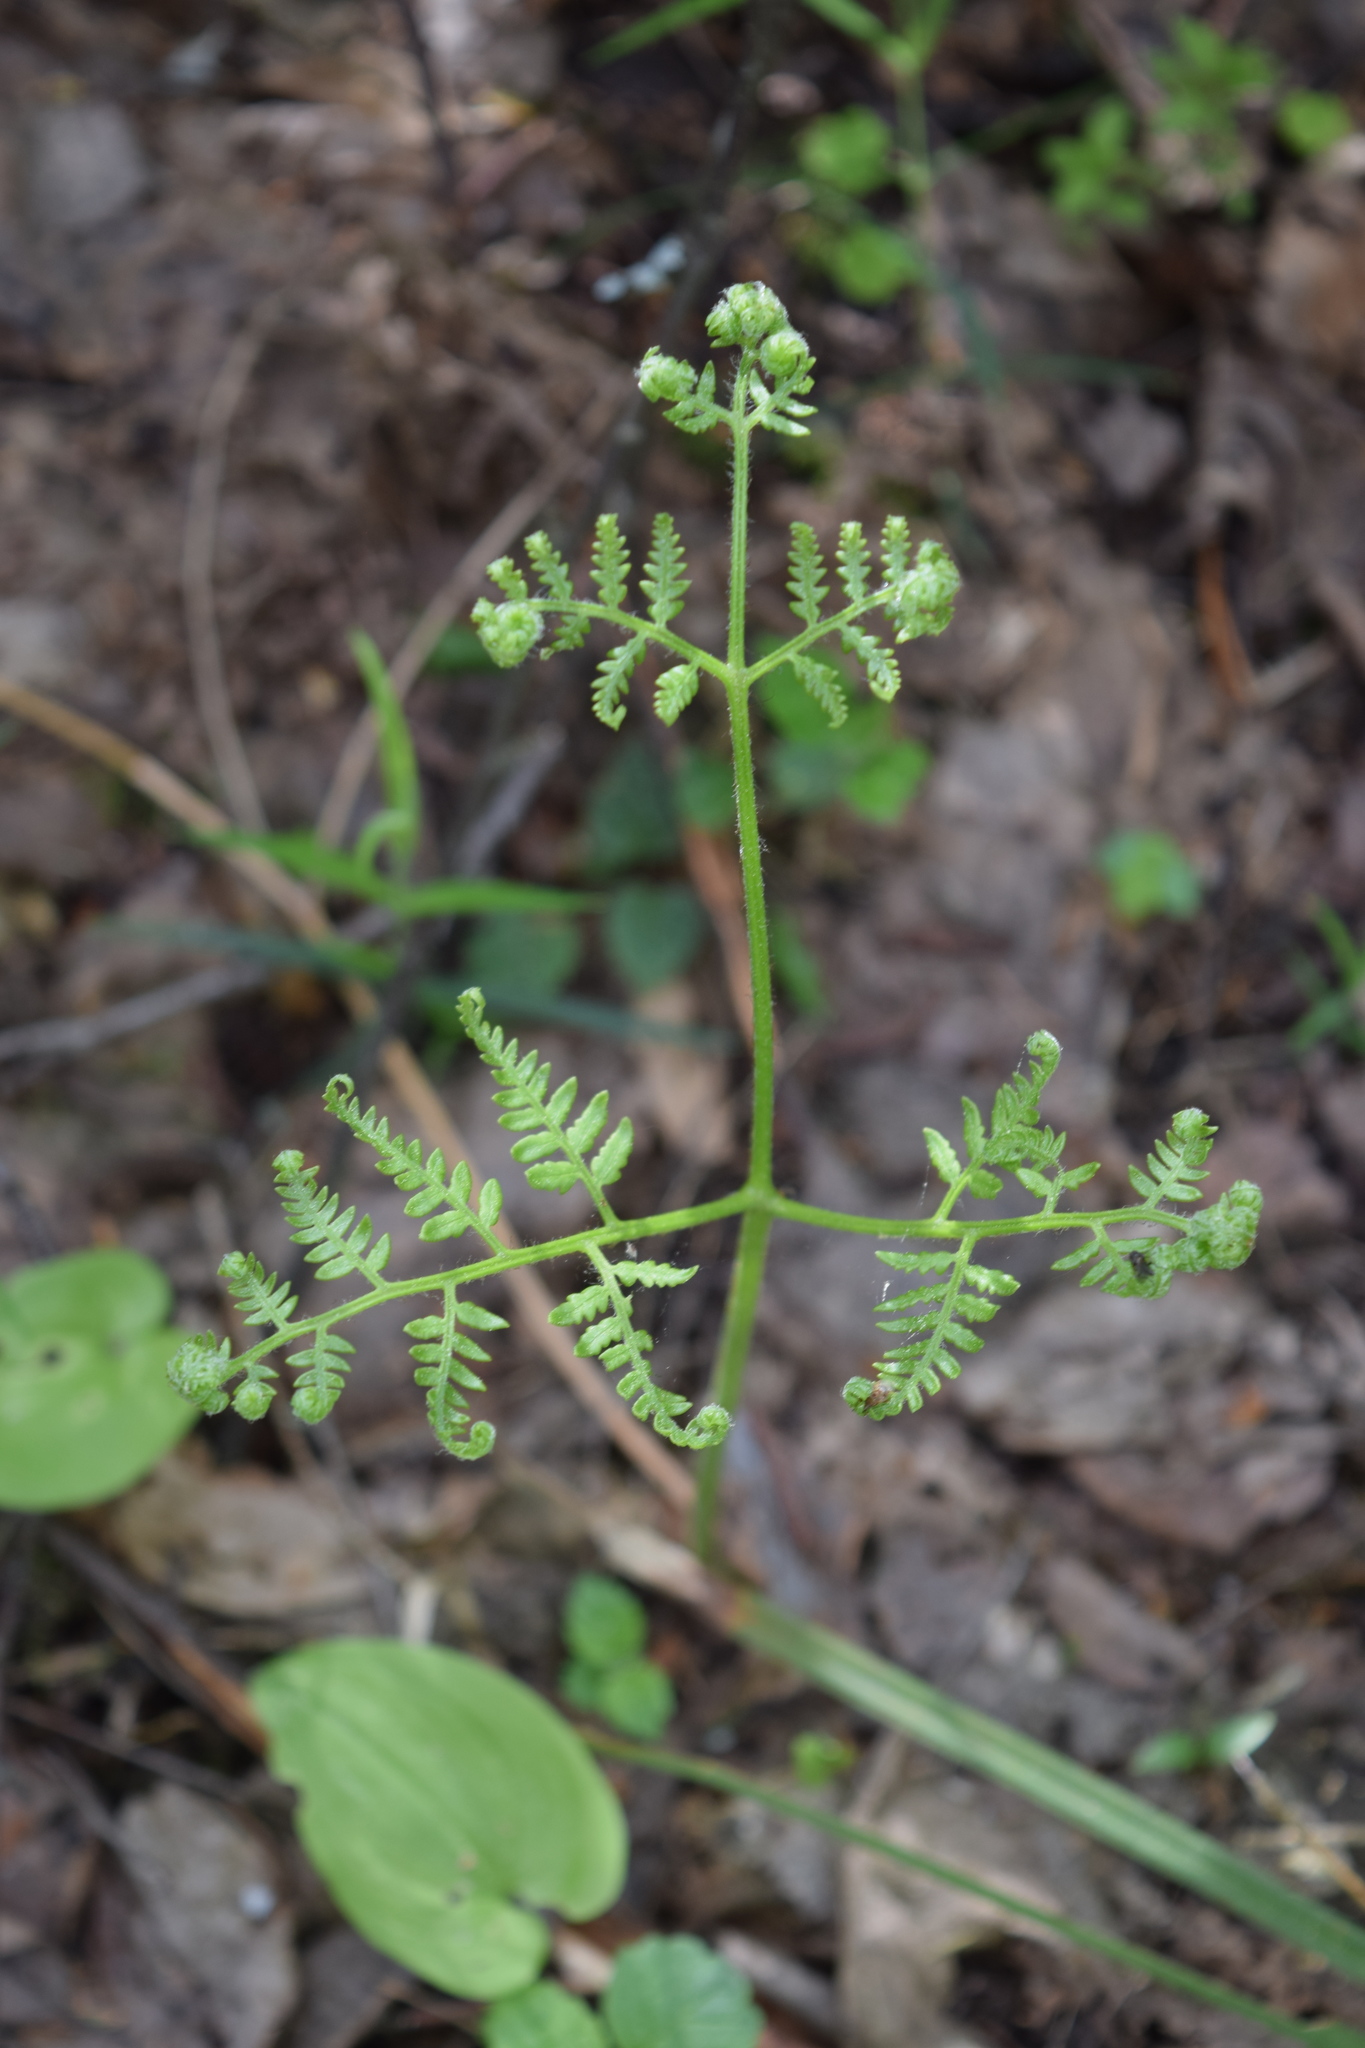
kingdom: Plantae
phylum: Tracheophyta
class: Polypodiopsida
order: Polypodiales
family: Dennstaedtiaceae
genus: Pteridium
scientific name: Pteridium aquilinum
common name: Bracken
